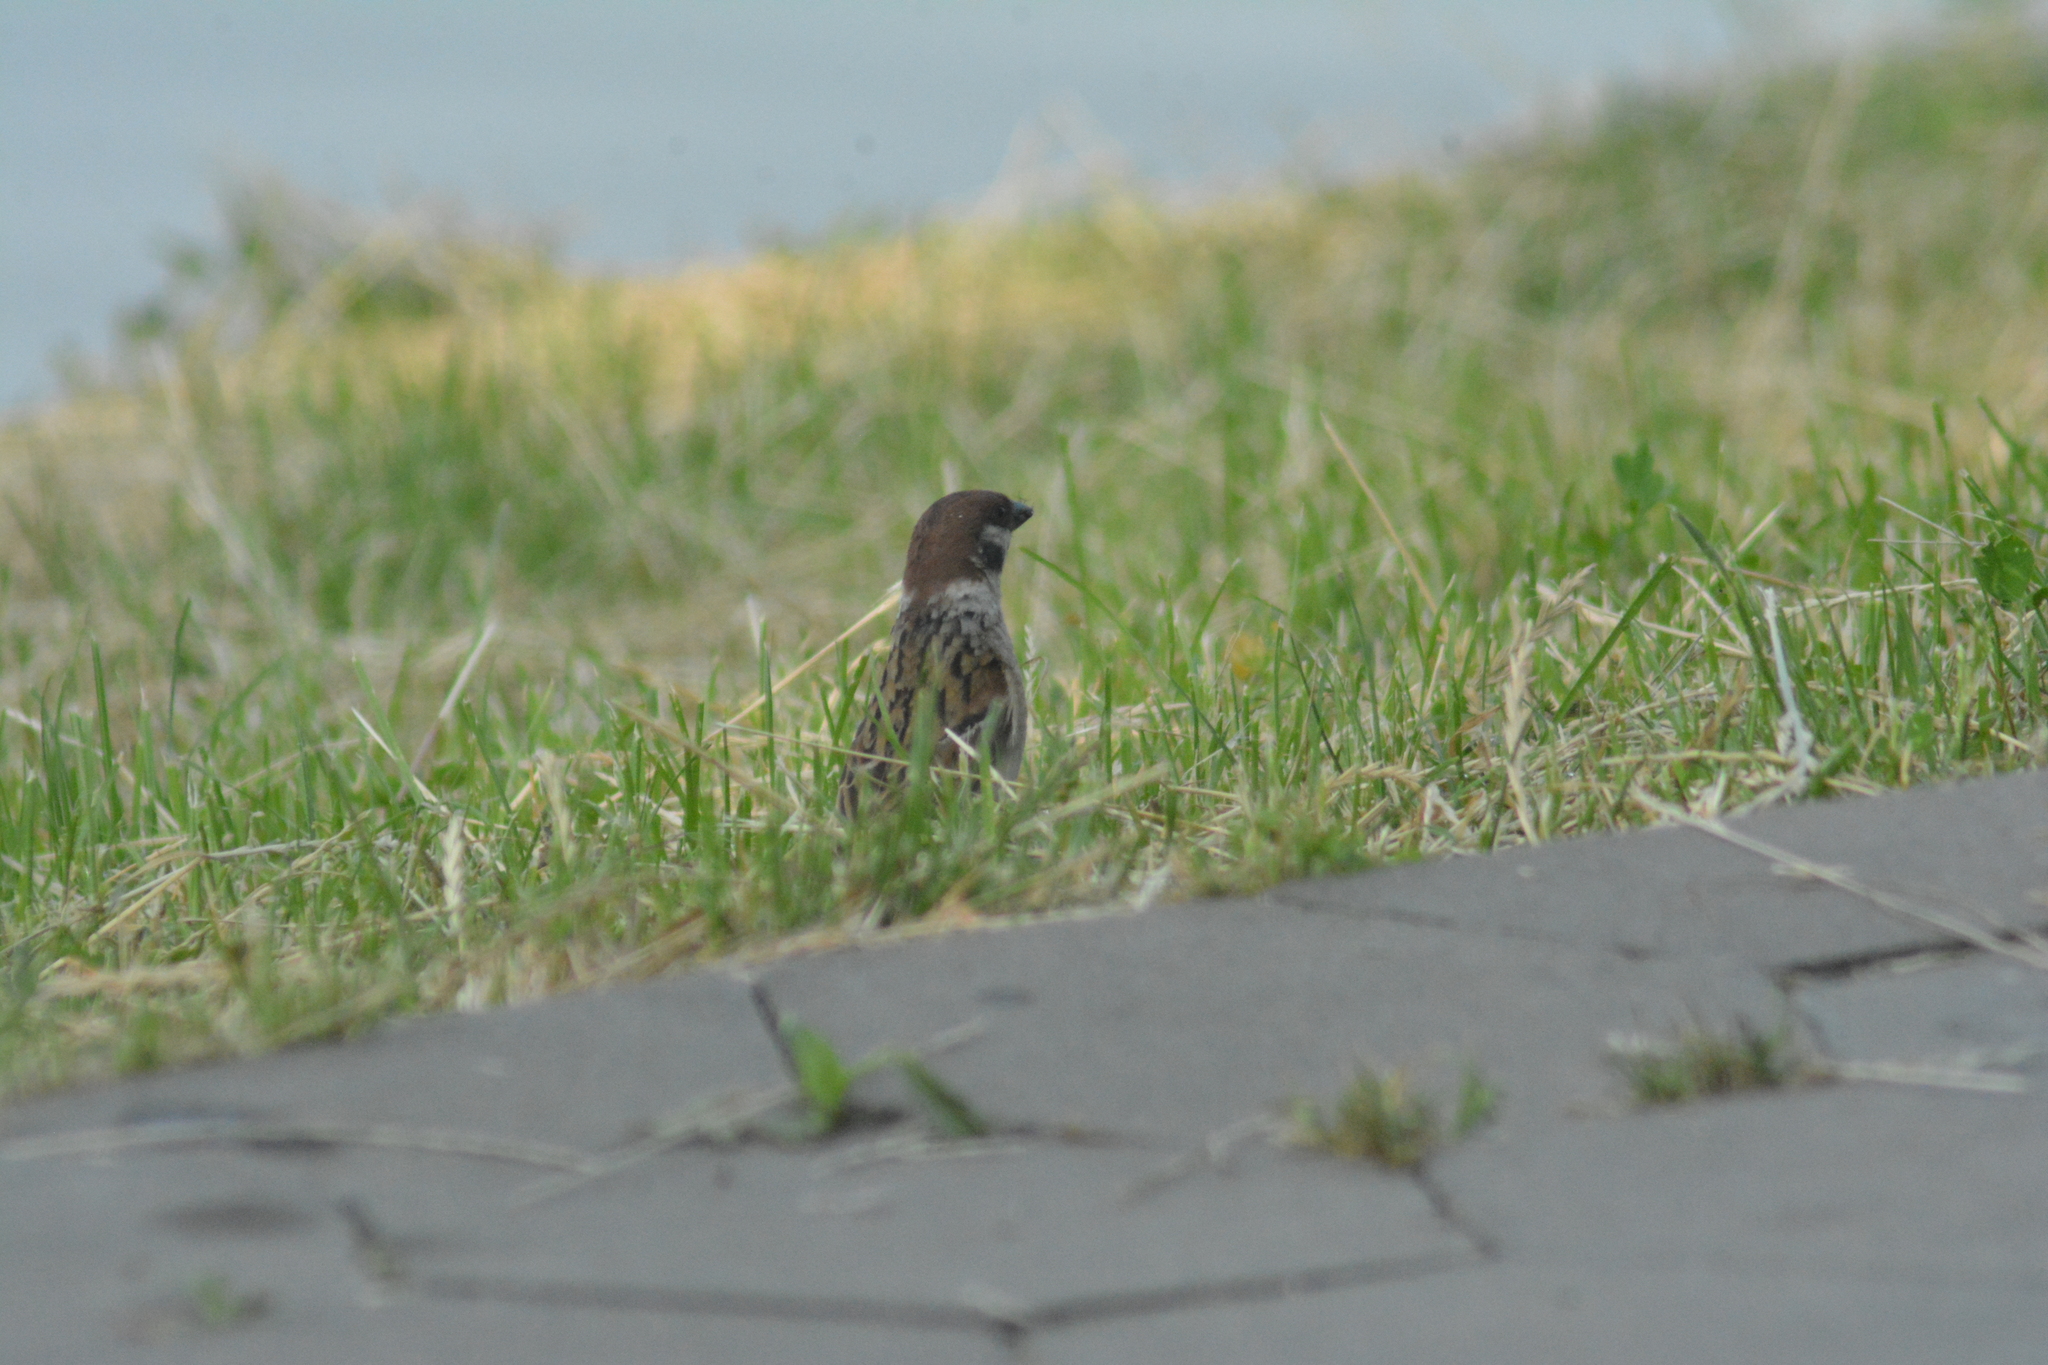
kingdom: Animalia
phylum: Chordata
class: Aves
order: Passeriformes
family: Passeridae
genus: Passer
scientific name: Passer montanus
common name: Eurasian tree sparrow
